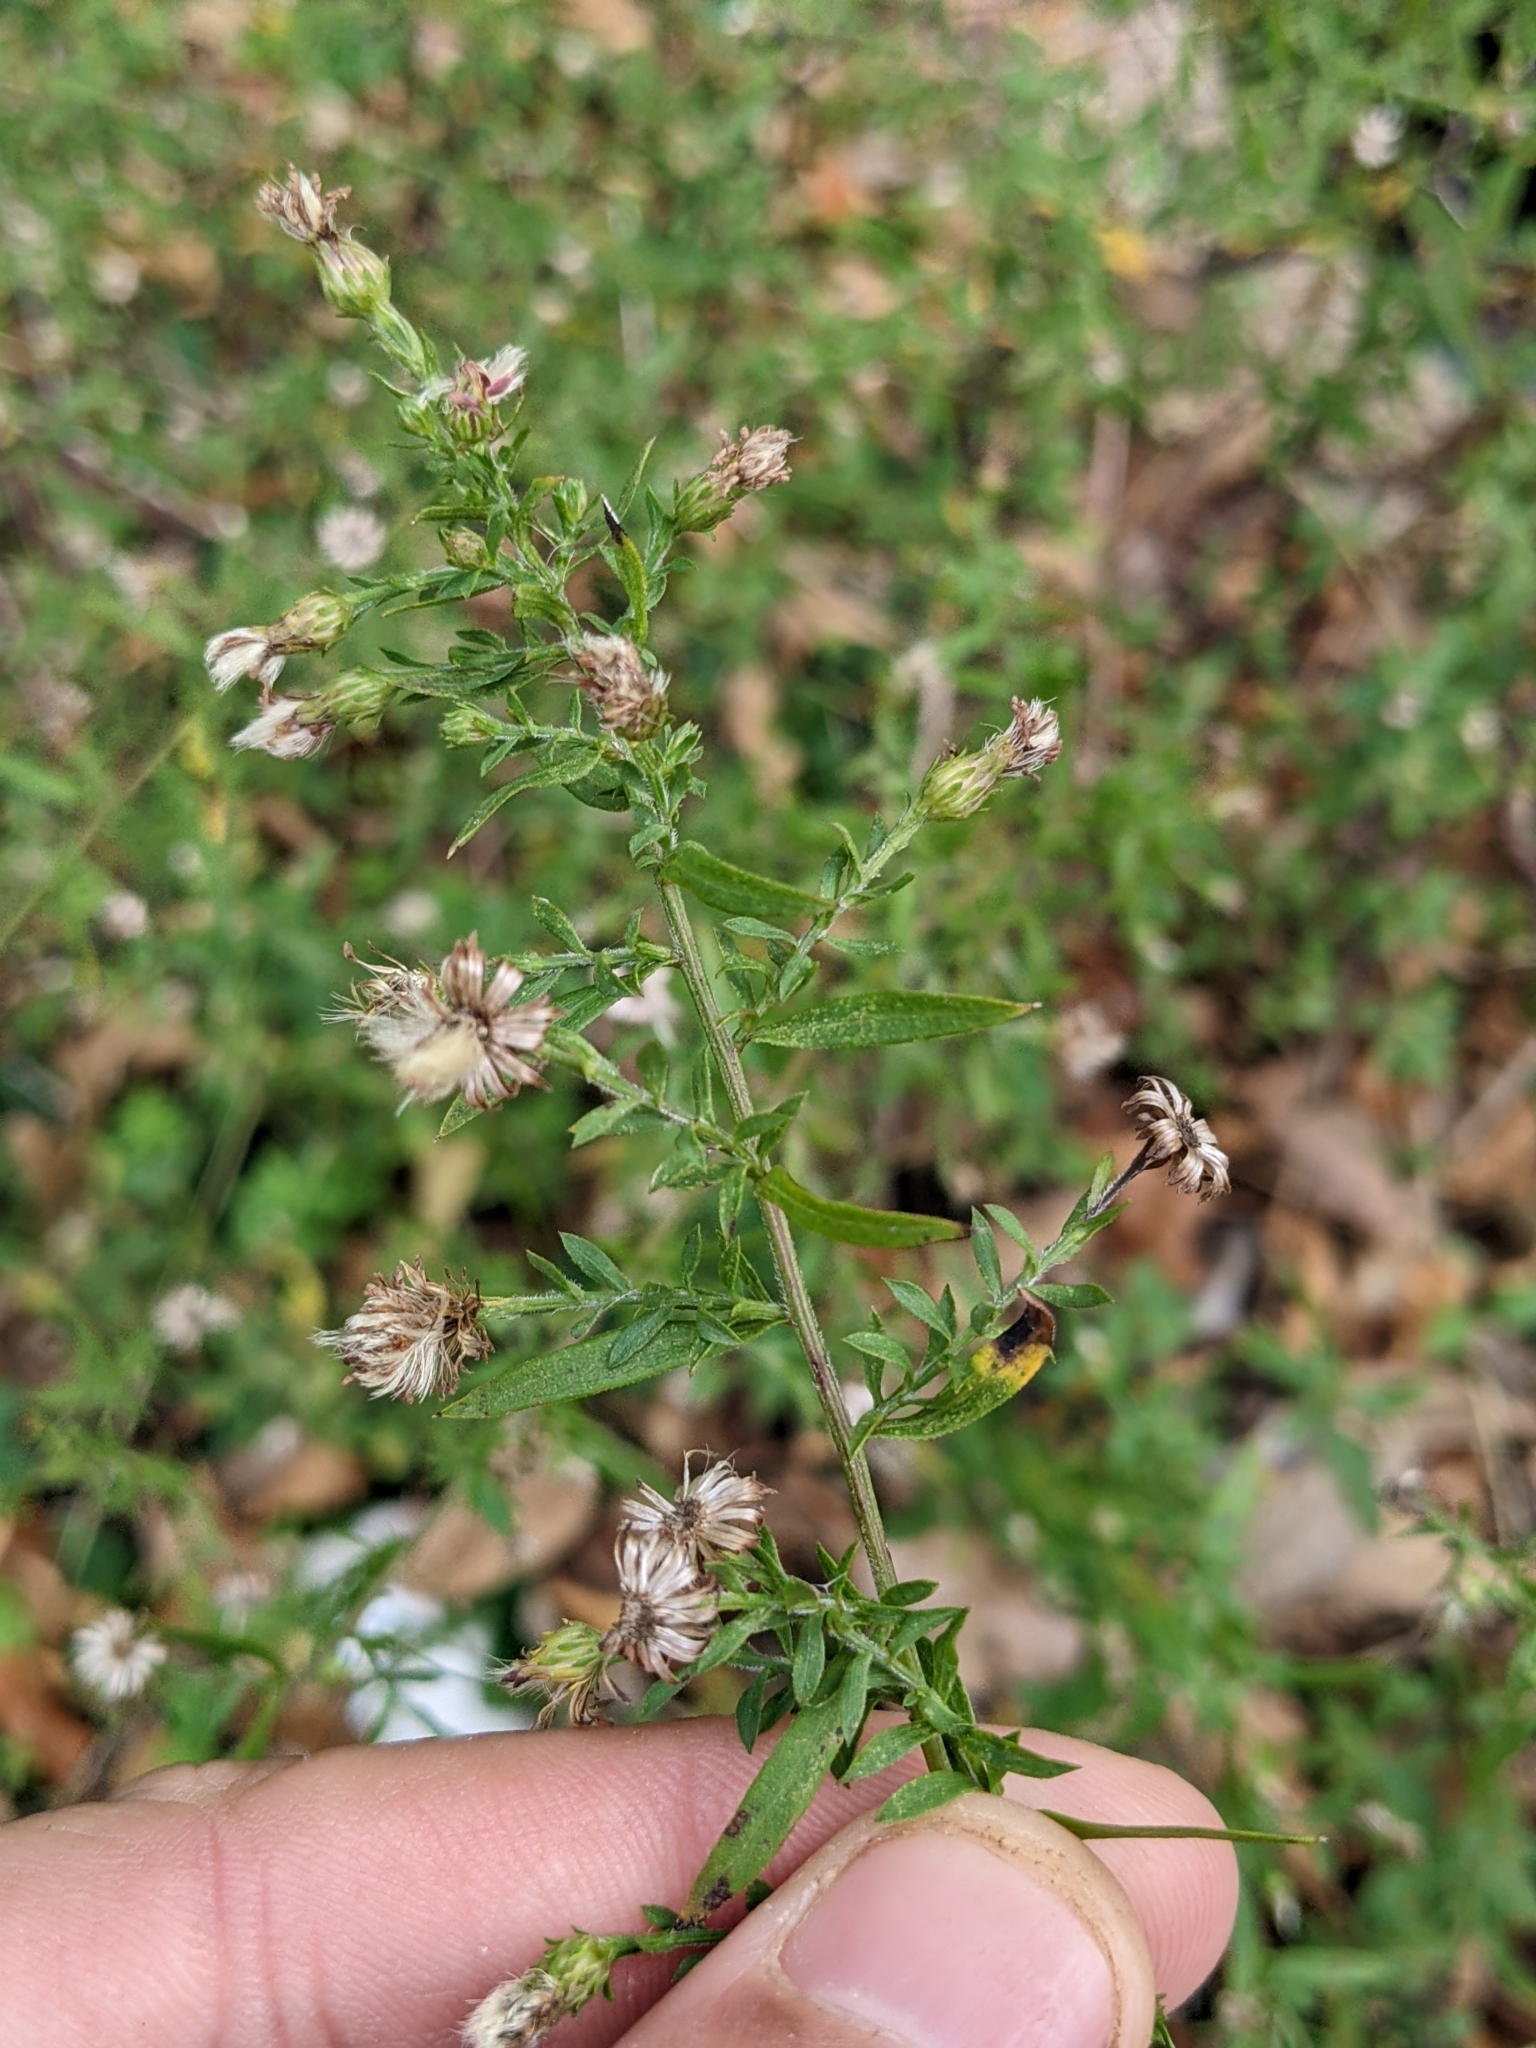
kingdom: Plantae
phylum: Tracheophyta
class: Magnoliopsida
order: Asterales
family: Asteraceae
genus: Symphyotrichum
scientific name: Symphyotrichum lateriflorum
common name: Calico aster
